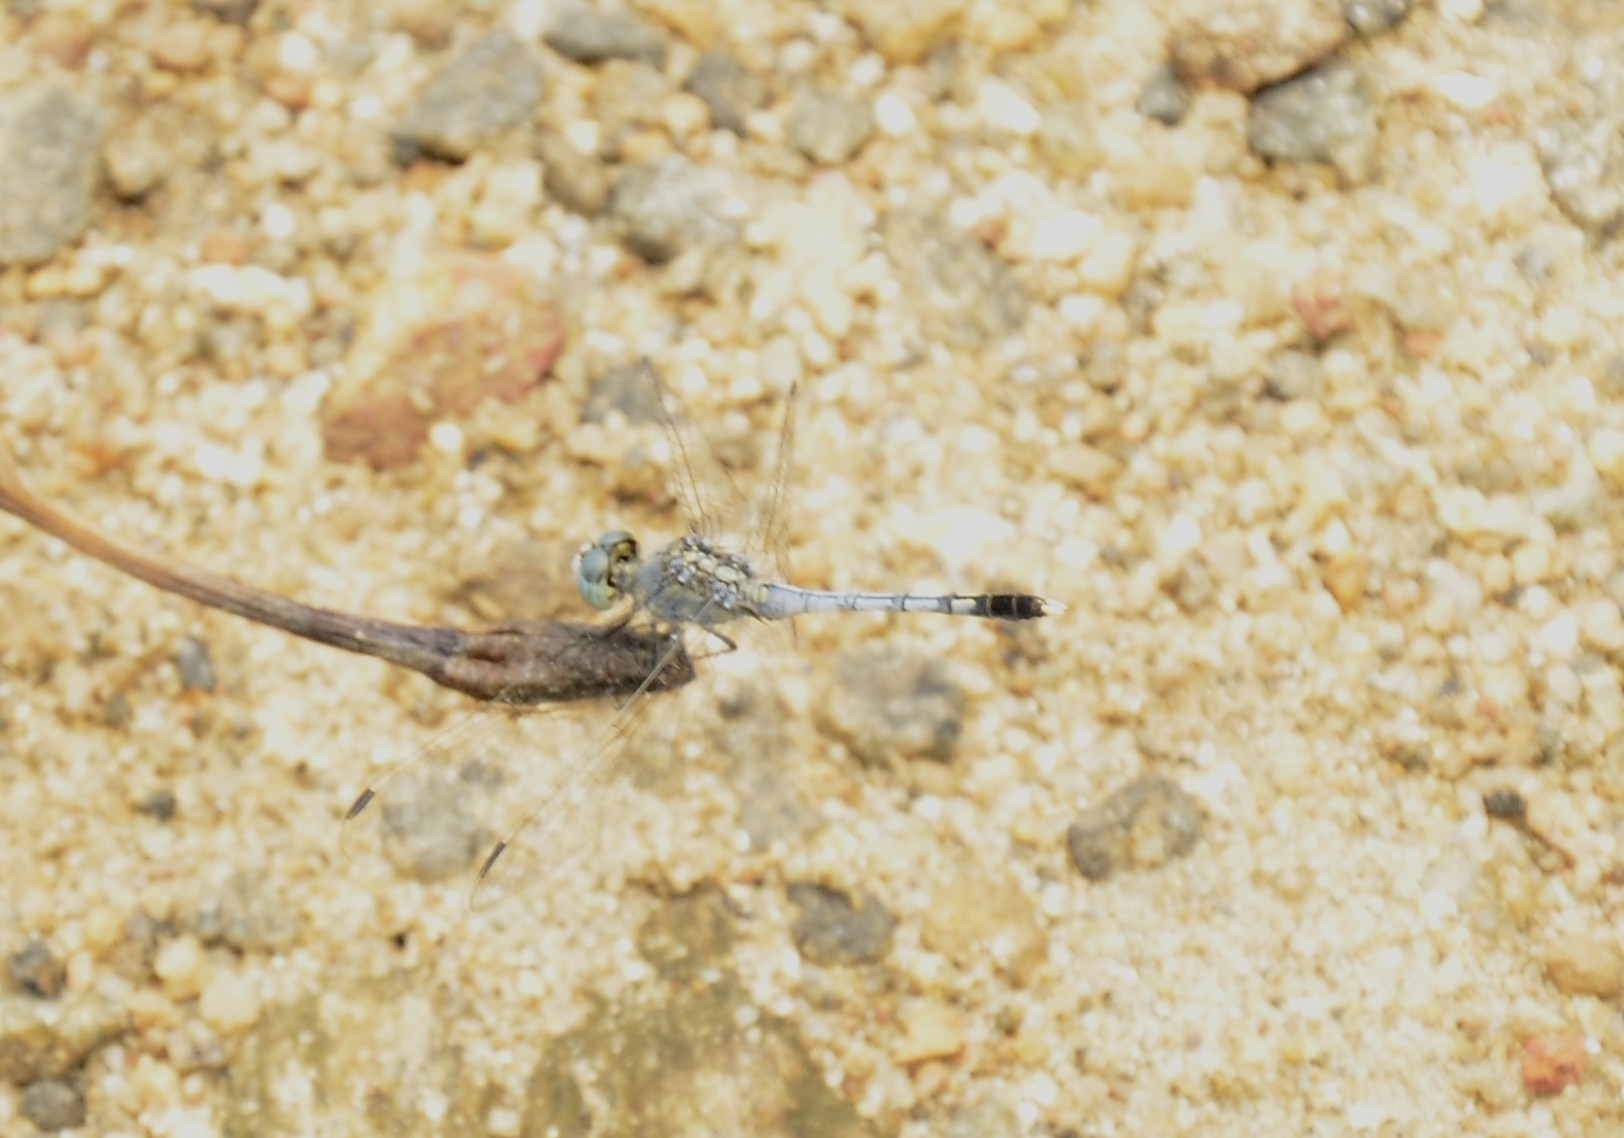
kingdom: Animalia
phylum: Arthropoda
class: Insecta
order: Odonata
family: Libellulidae
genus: Diplacodes
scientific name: Diplacodes trivialis
